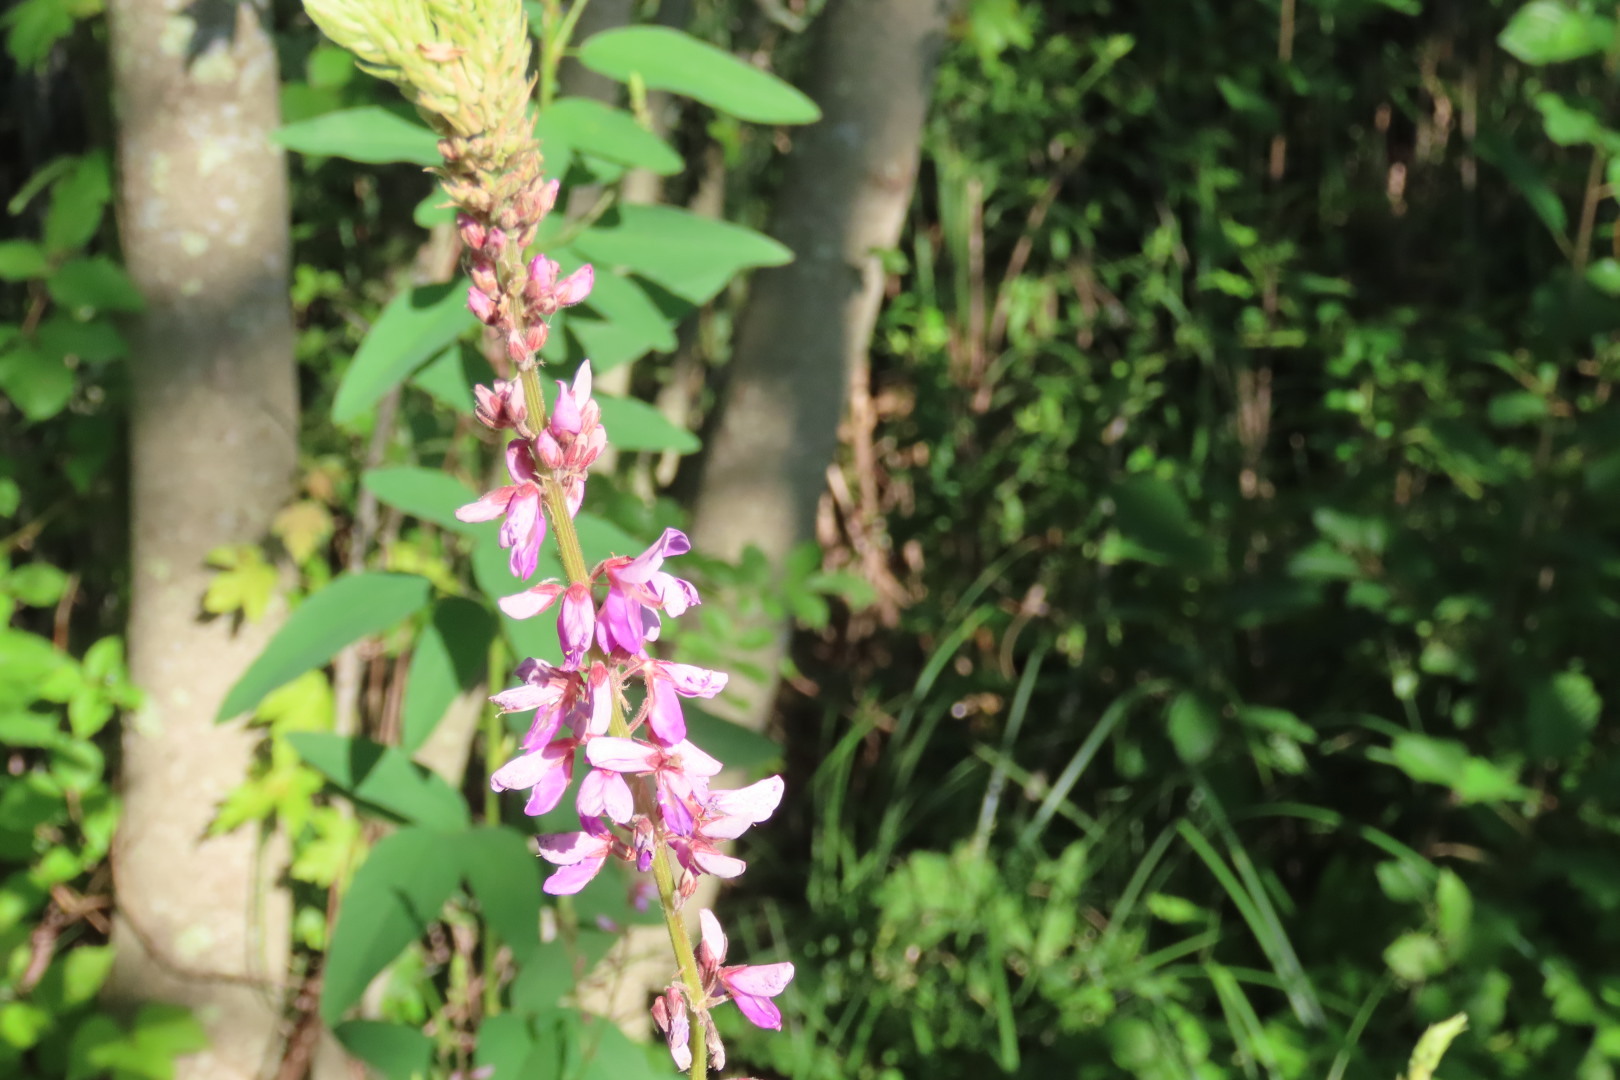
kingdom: Plantae
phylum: Tracheophyta
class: Magnoliopsida
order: Fabales
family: Fabaceae
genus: Desmodium
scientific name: Desmodium canadense
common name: Canada tick-trefoil
